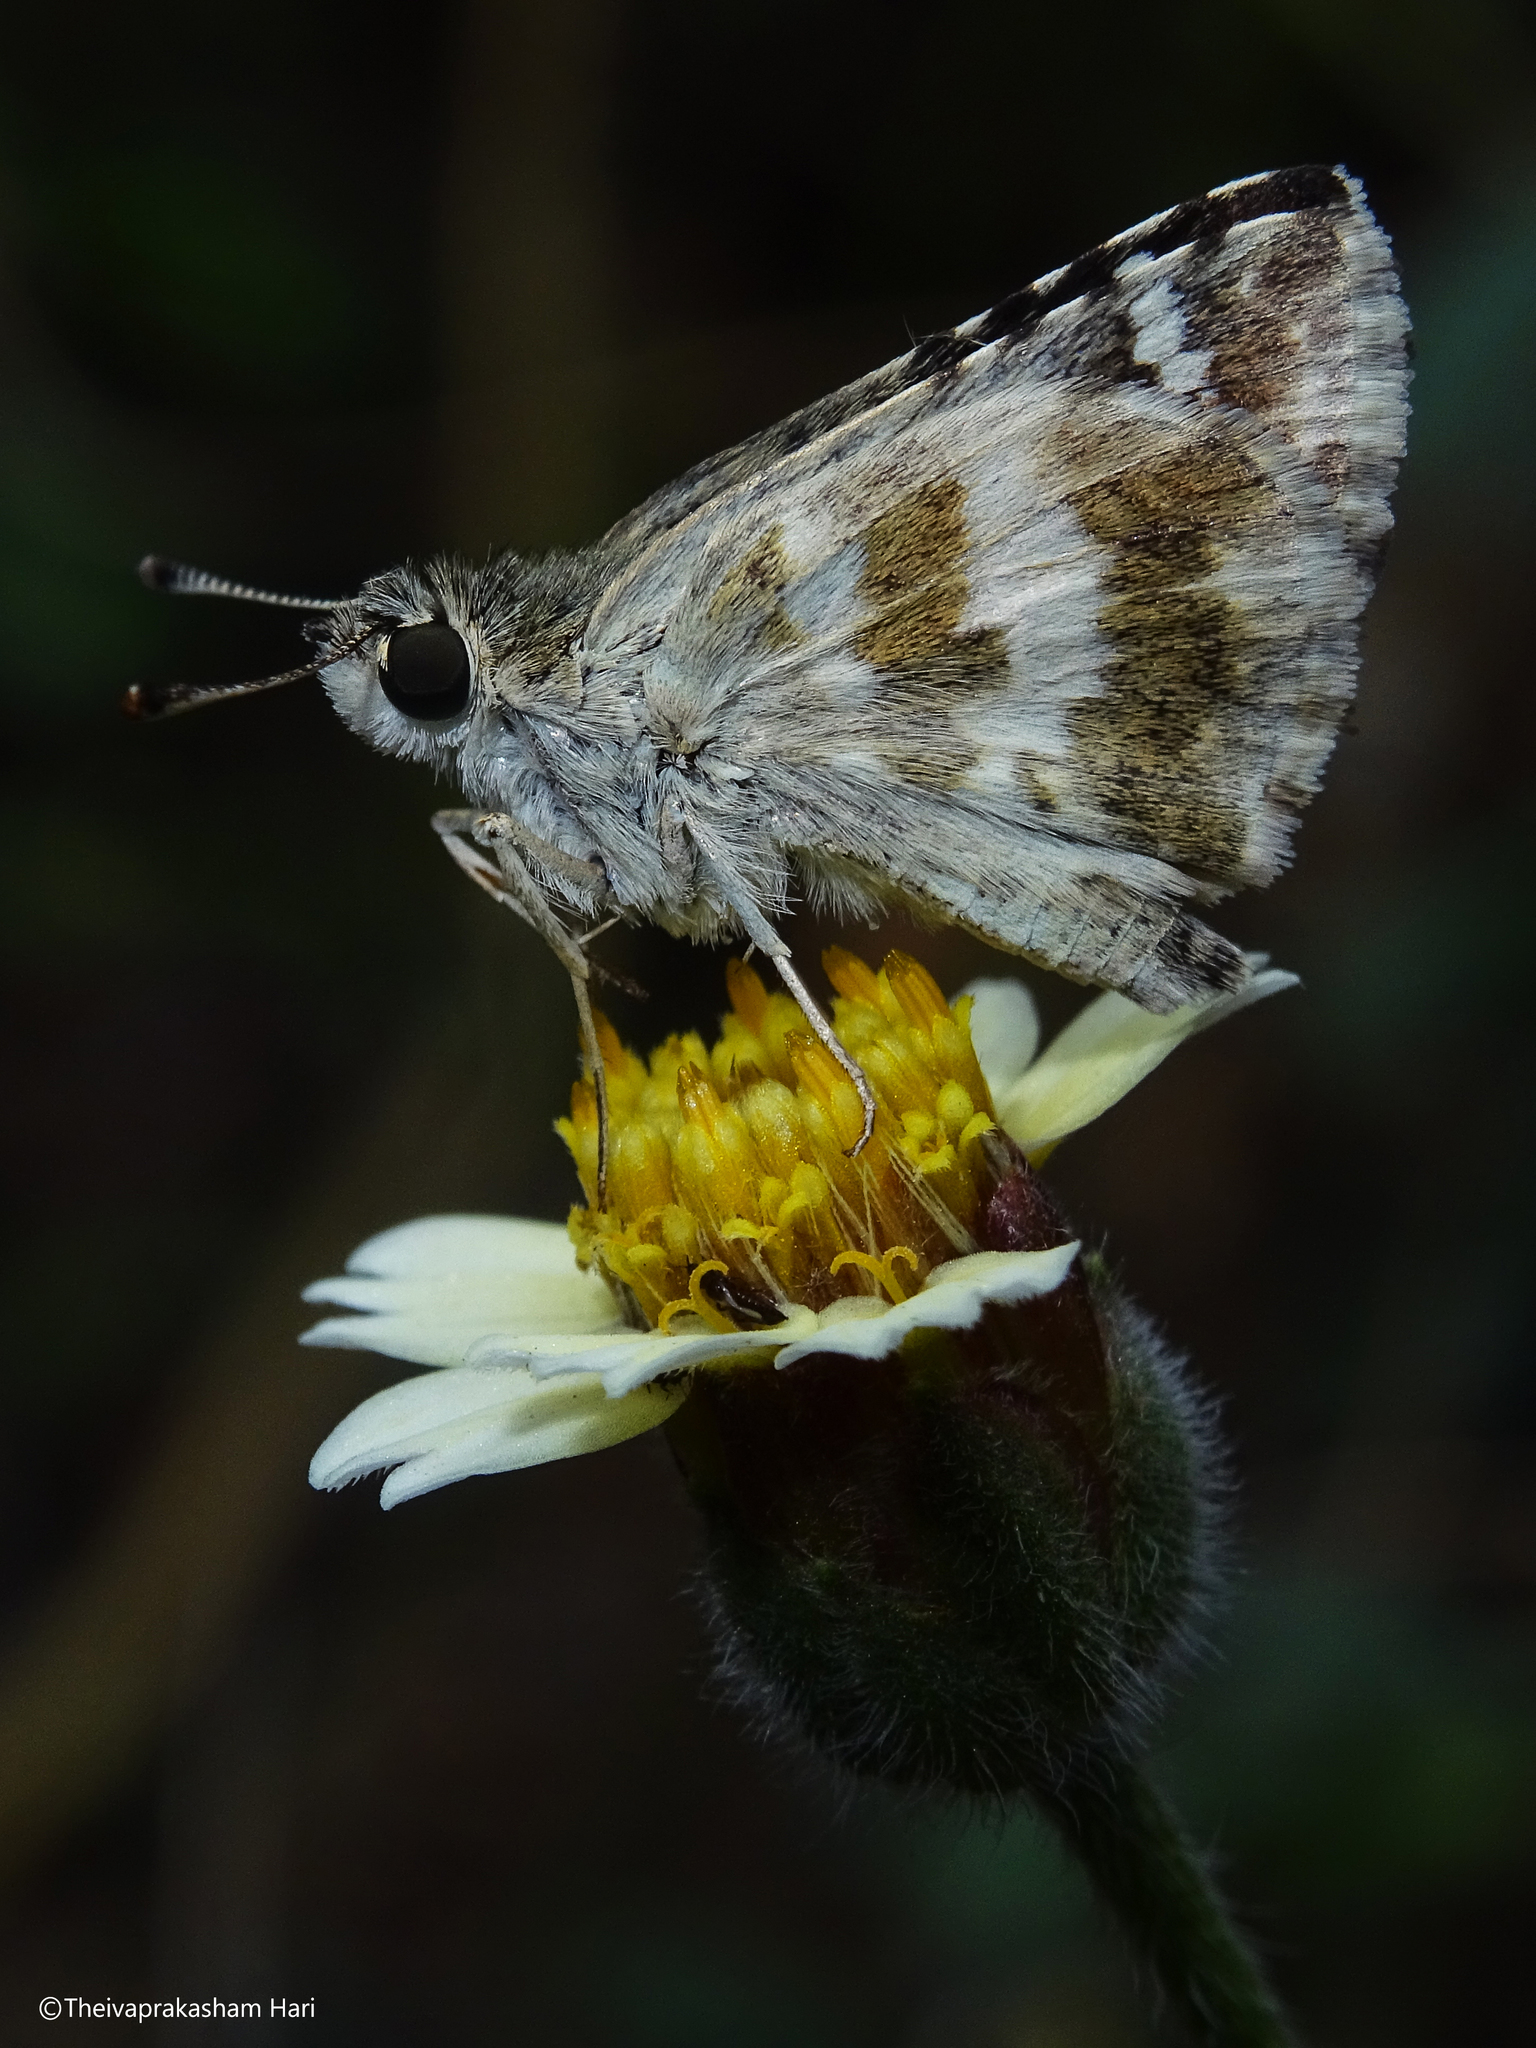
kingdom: Animalia
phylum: Arthropoda
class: Insecta
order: Lepidoptera
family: Hesperiidae
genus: Spialia
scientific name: Spialia galba
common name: Indian skipper
